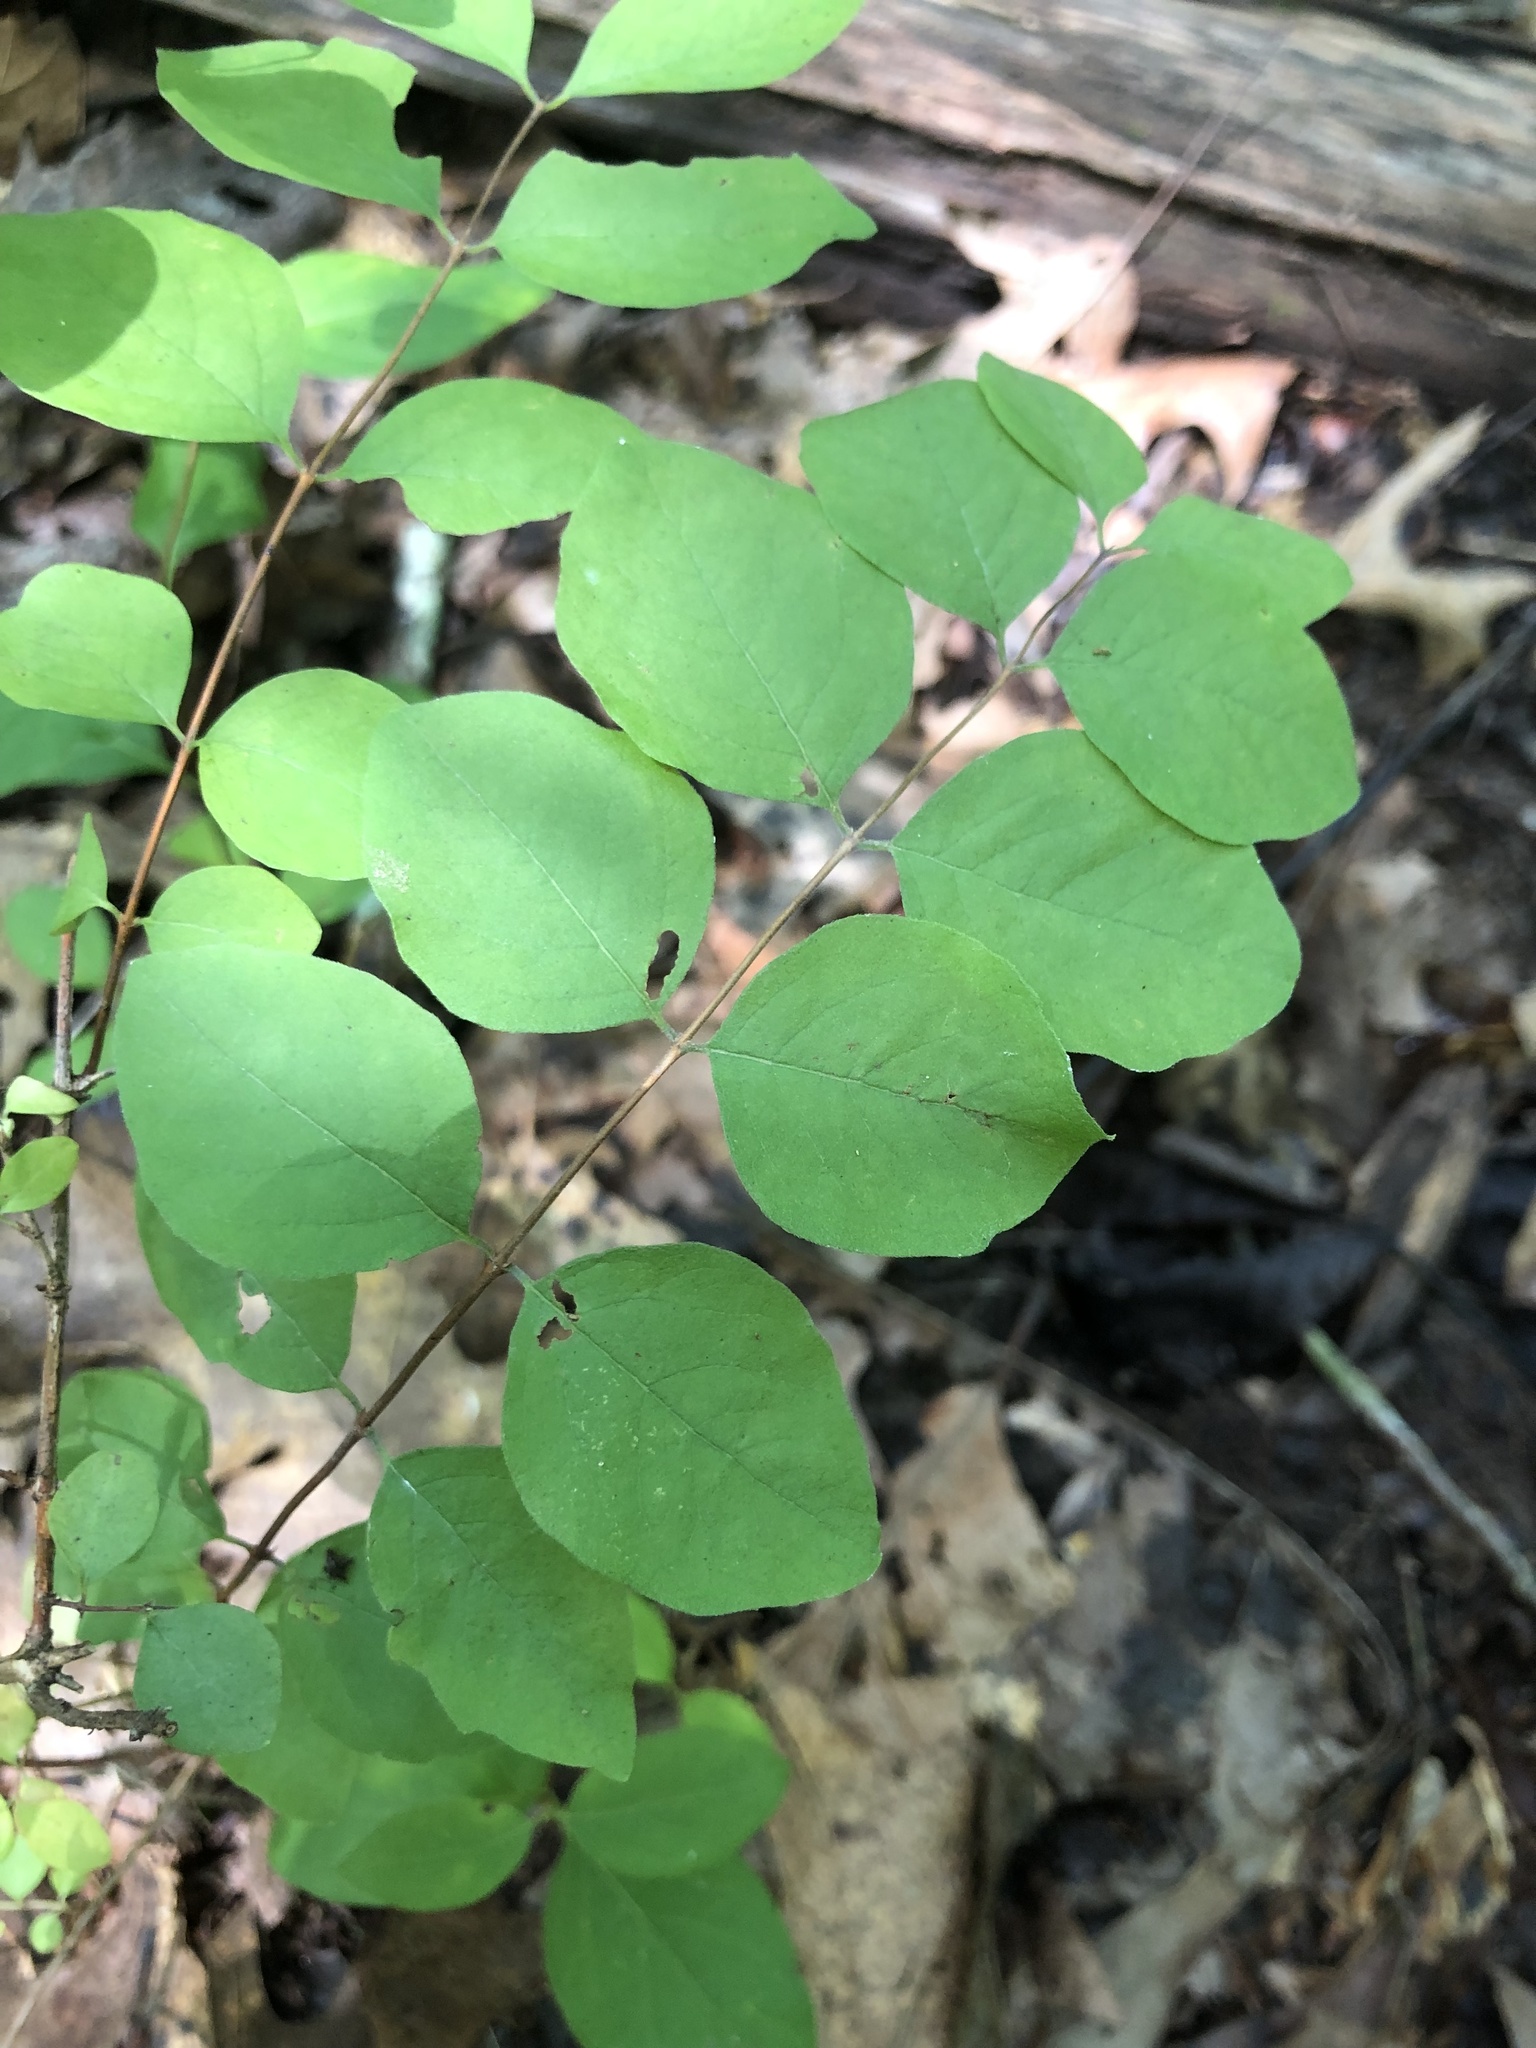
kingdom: Plantae
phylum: Tracheophyta
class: Magnoliopsida
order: Dipsacales
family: Caprifoliaceae
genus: Symphoricarpos
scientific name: Symphoricarpos orbiculatus
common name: Coralberry
